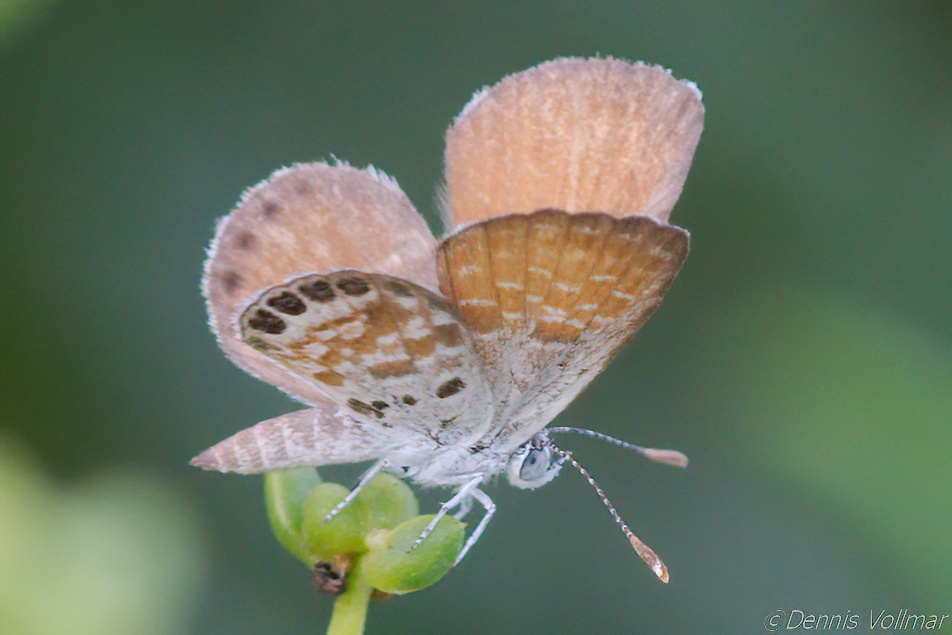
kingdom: Animalia
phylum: Arthropoda
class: Insecta
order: Lepidoptera
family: Lycaenidae
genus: Brephidium
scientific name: Brephidium exilis
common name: Pygmy blue
